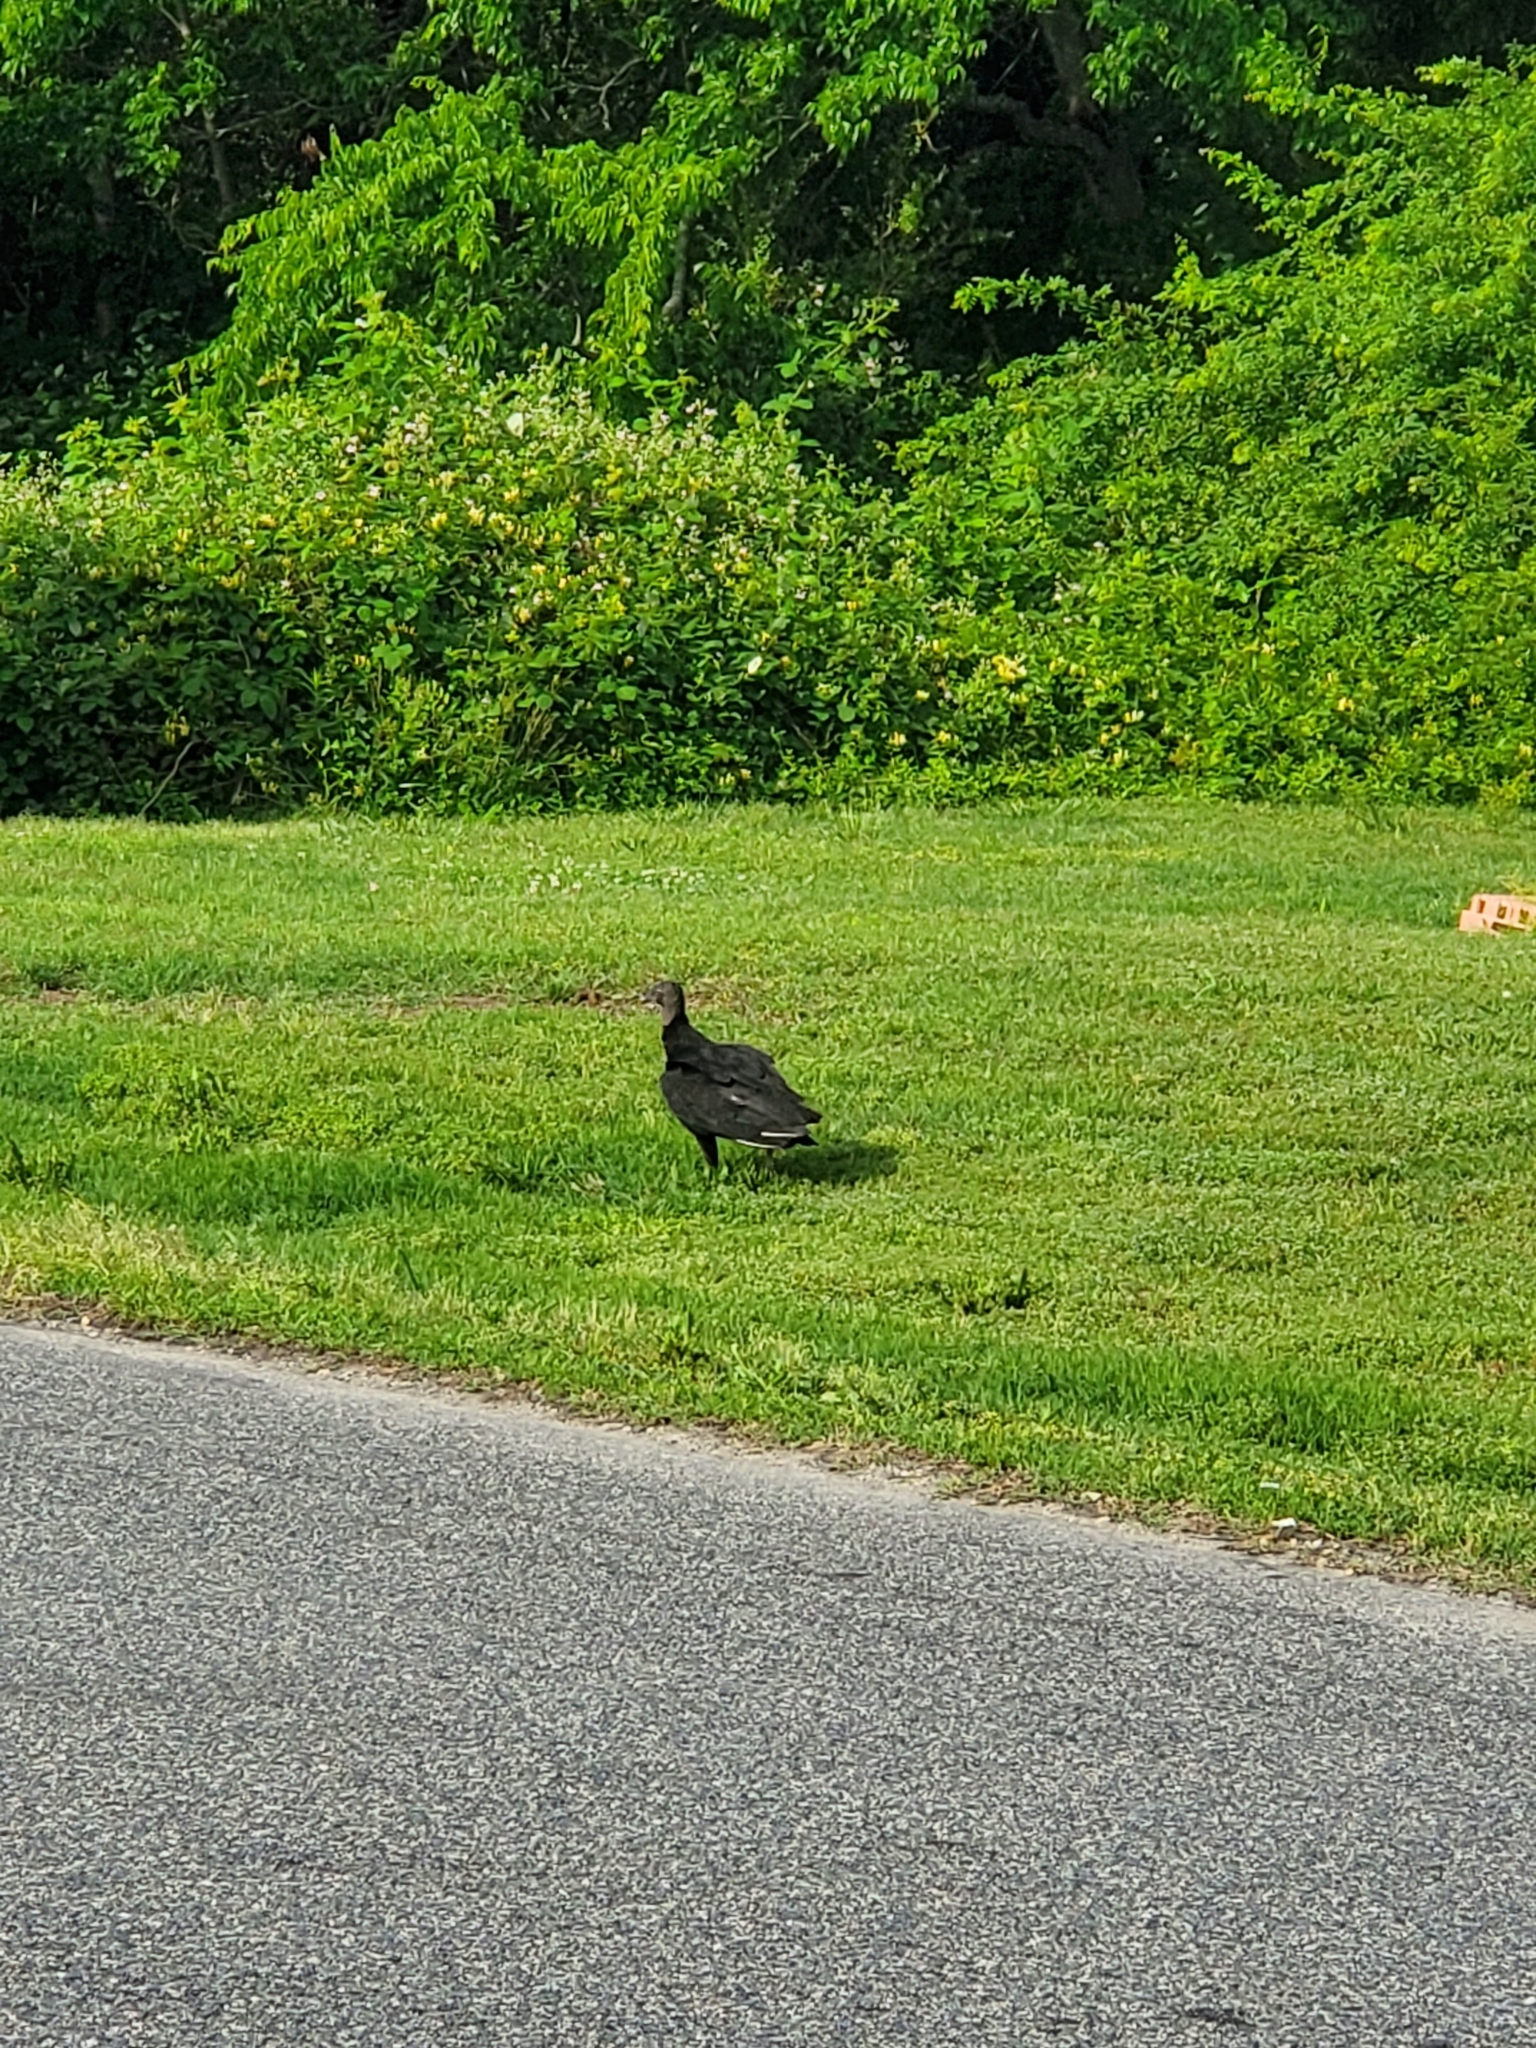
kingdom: Animalia
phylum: Chordata
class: Aves
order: Accipitriformes
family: Cathartidae
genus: Coragyps
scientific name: Coragyps atratus
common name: Black vulture
